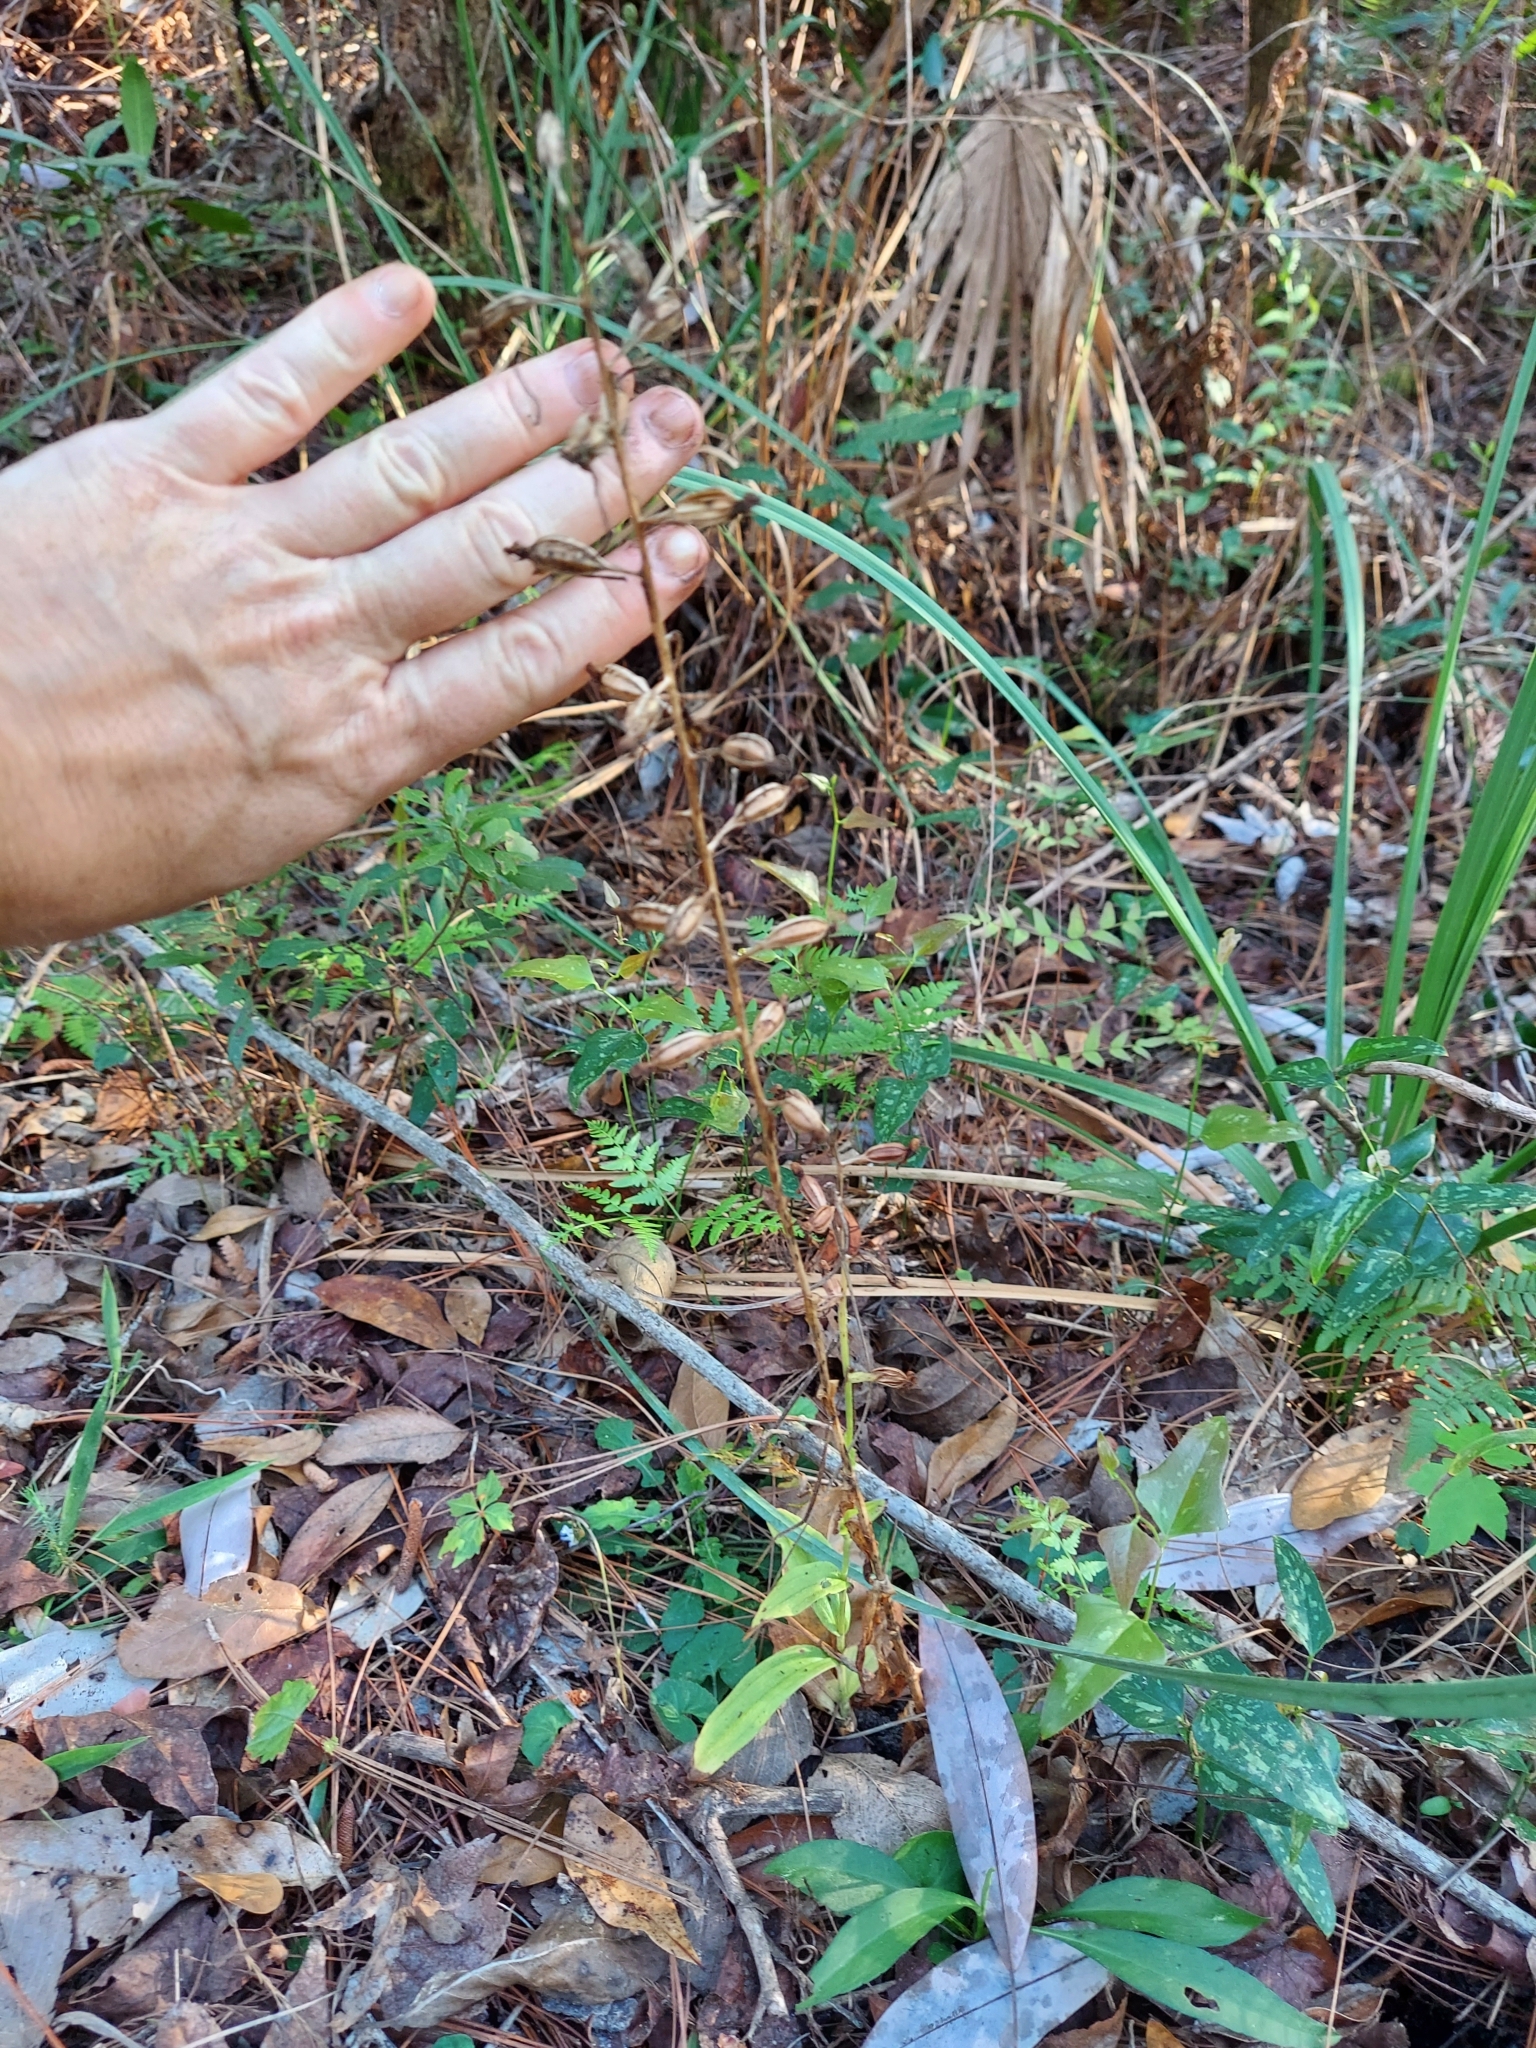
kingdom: Plantae
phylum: Tracheophyta
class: Liliopsida
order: Asparagales
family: Orchidaceae
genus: Habenaria
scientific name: Habenaria floribunda
